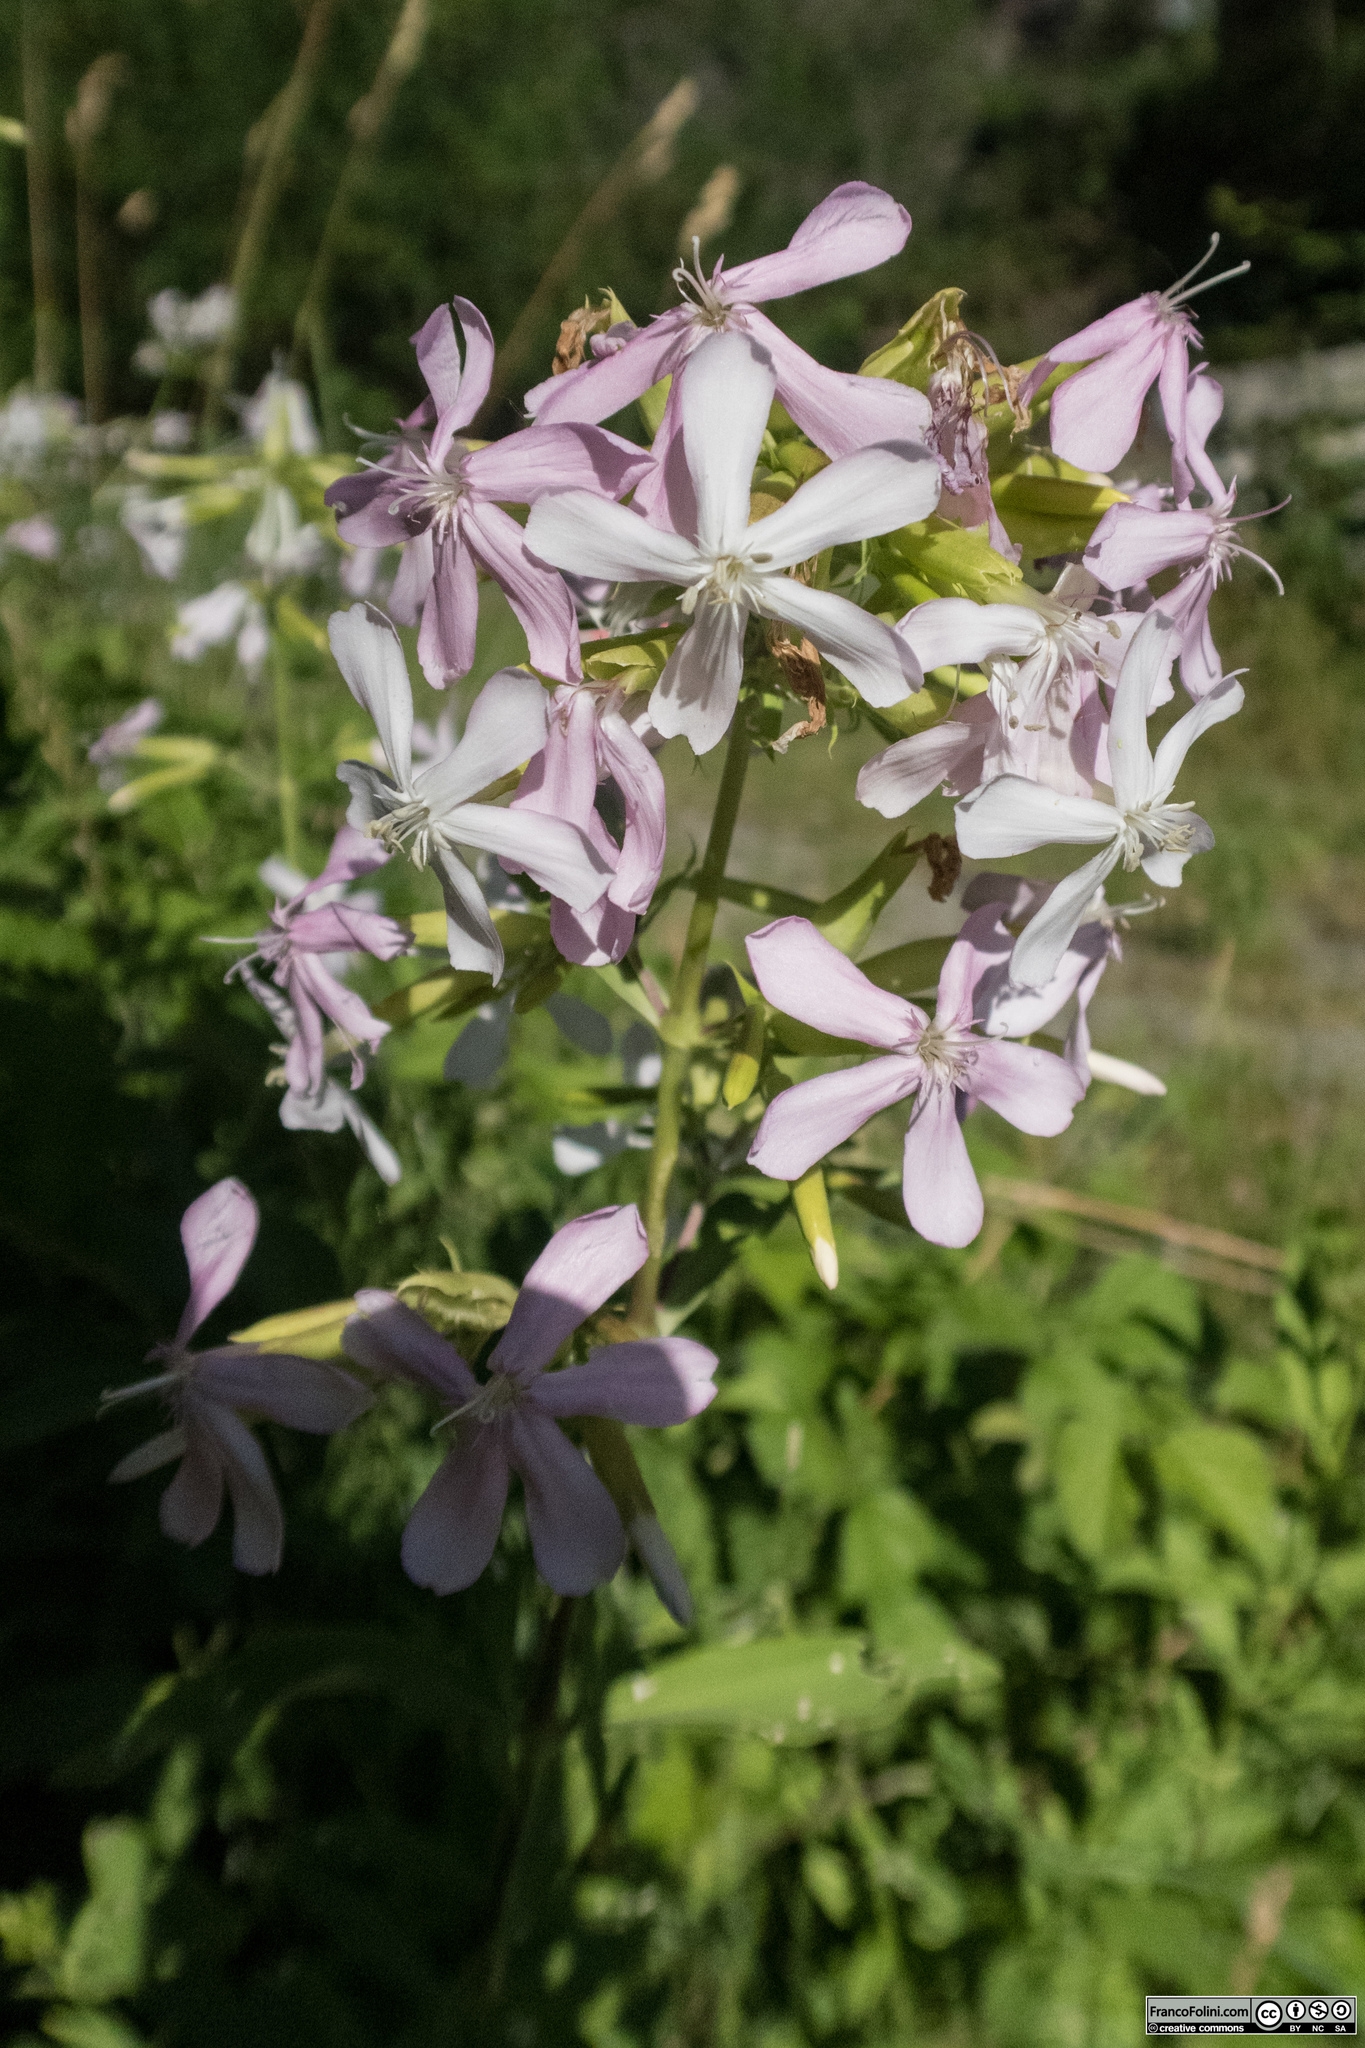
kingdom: Plantae
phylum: Tracheophyta
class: Magnoliopsida
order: Caryophyllales
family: Caryophyllaceae
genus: Saponaria
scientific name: Saponaria officinalis
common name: Soapwort
